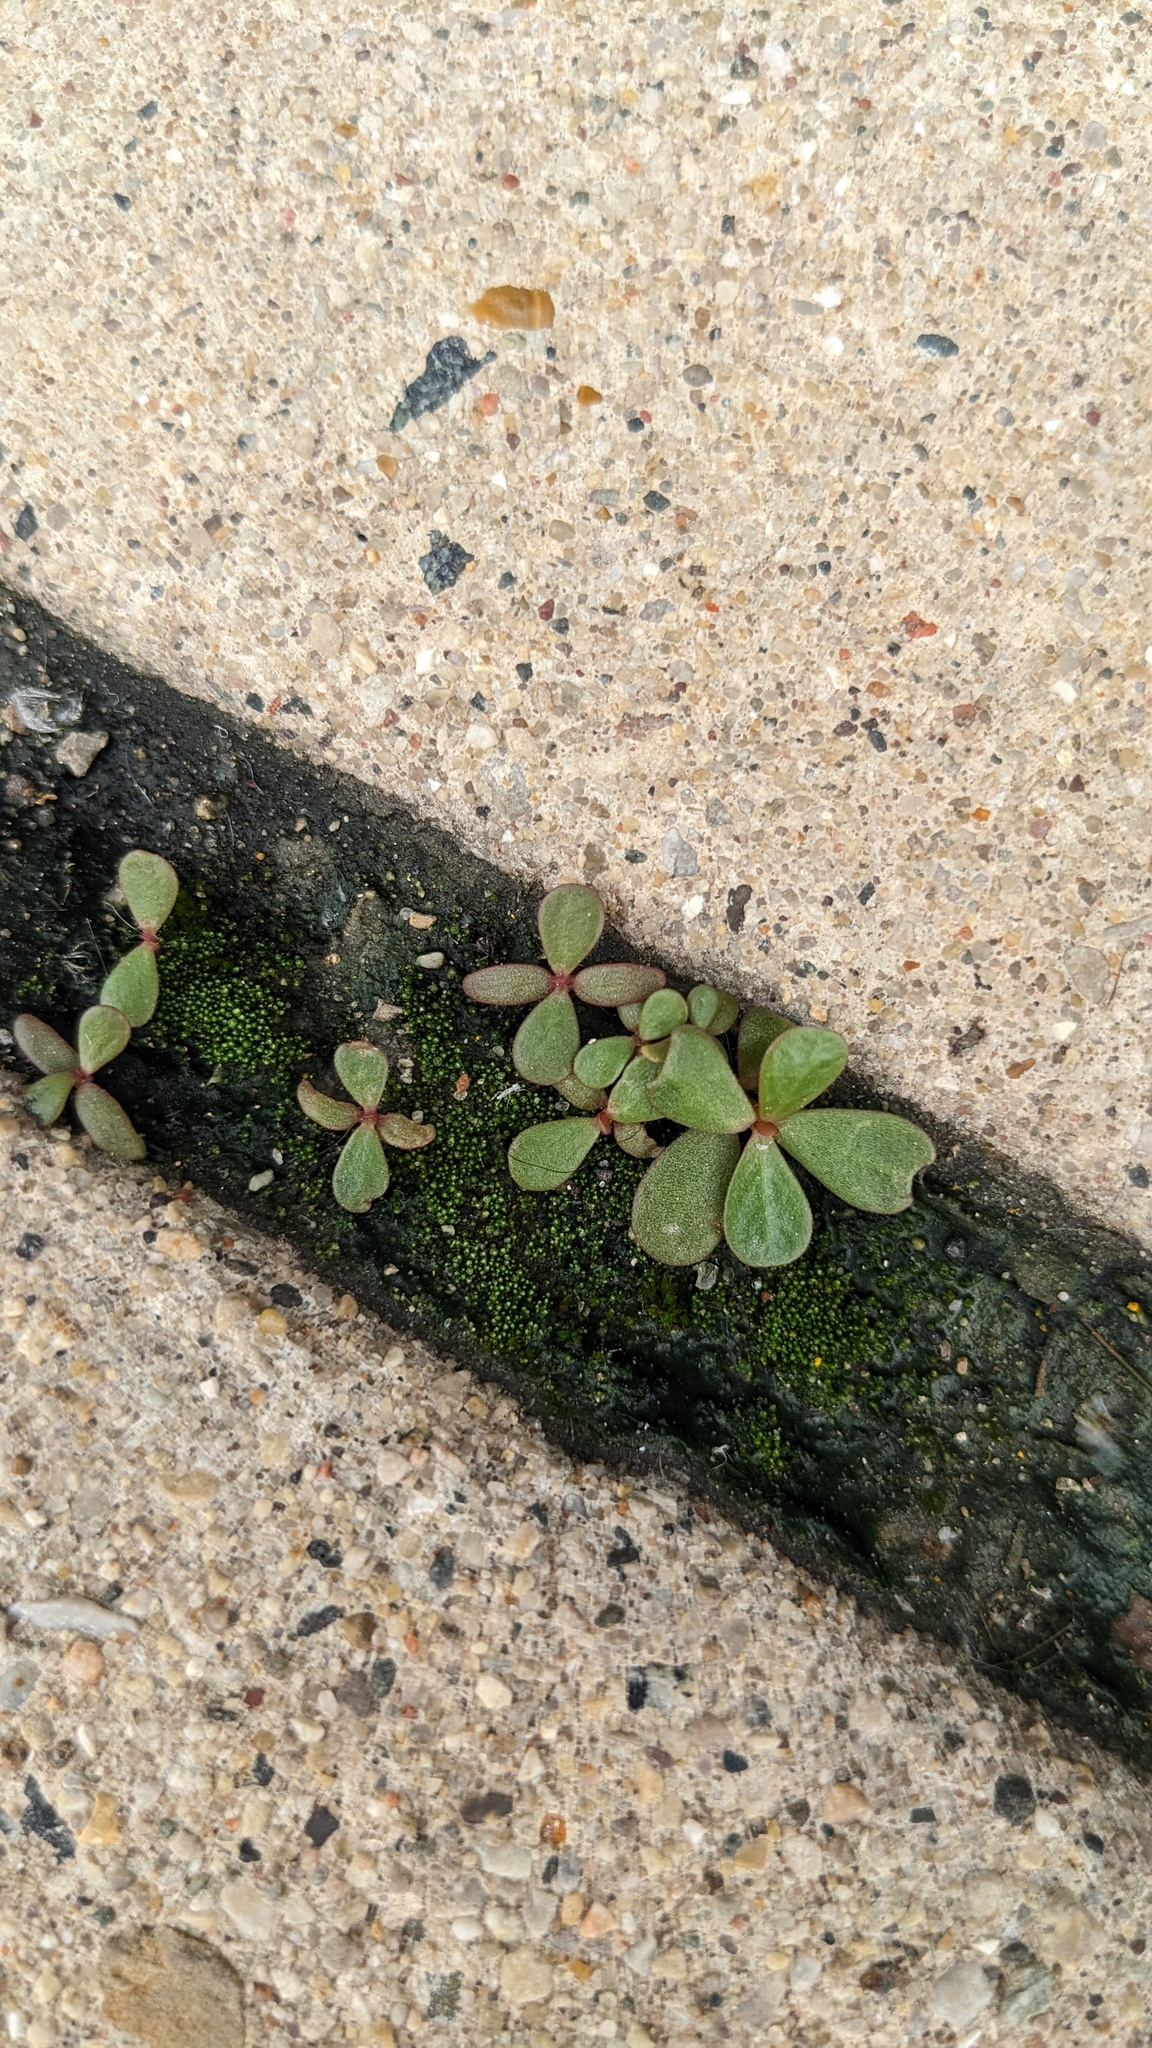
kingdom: Plantae
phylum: Tracheophyta
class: Magnoliopsida
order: Caryophyllales
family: Portulacaceae
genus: Portulaca
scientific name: Portulaca oleracea
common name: Common purslane
